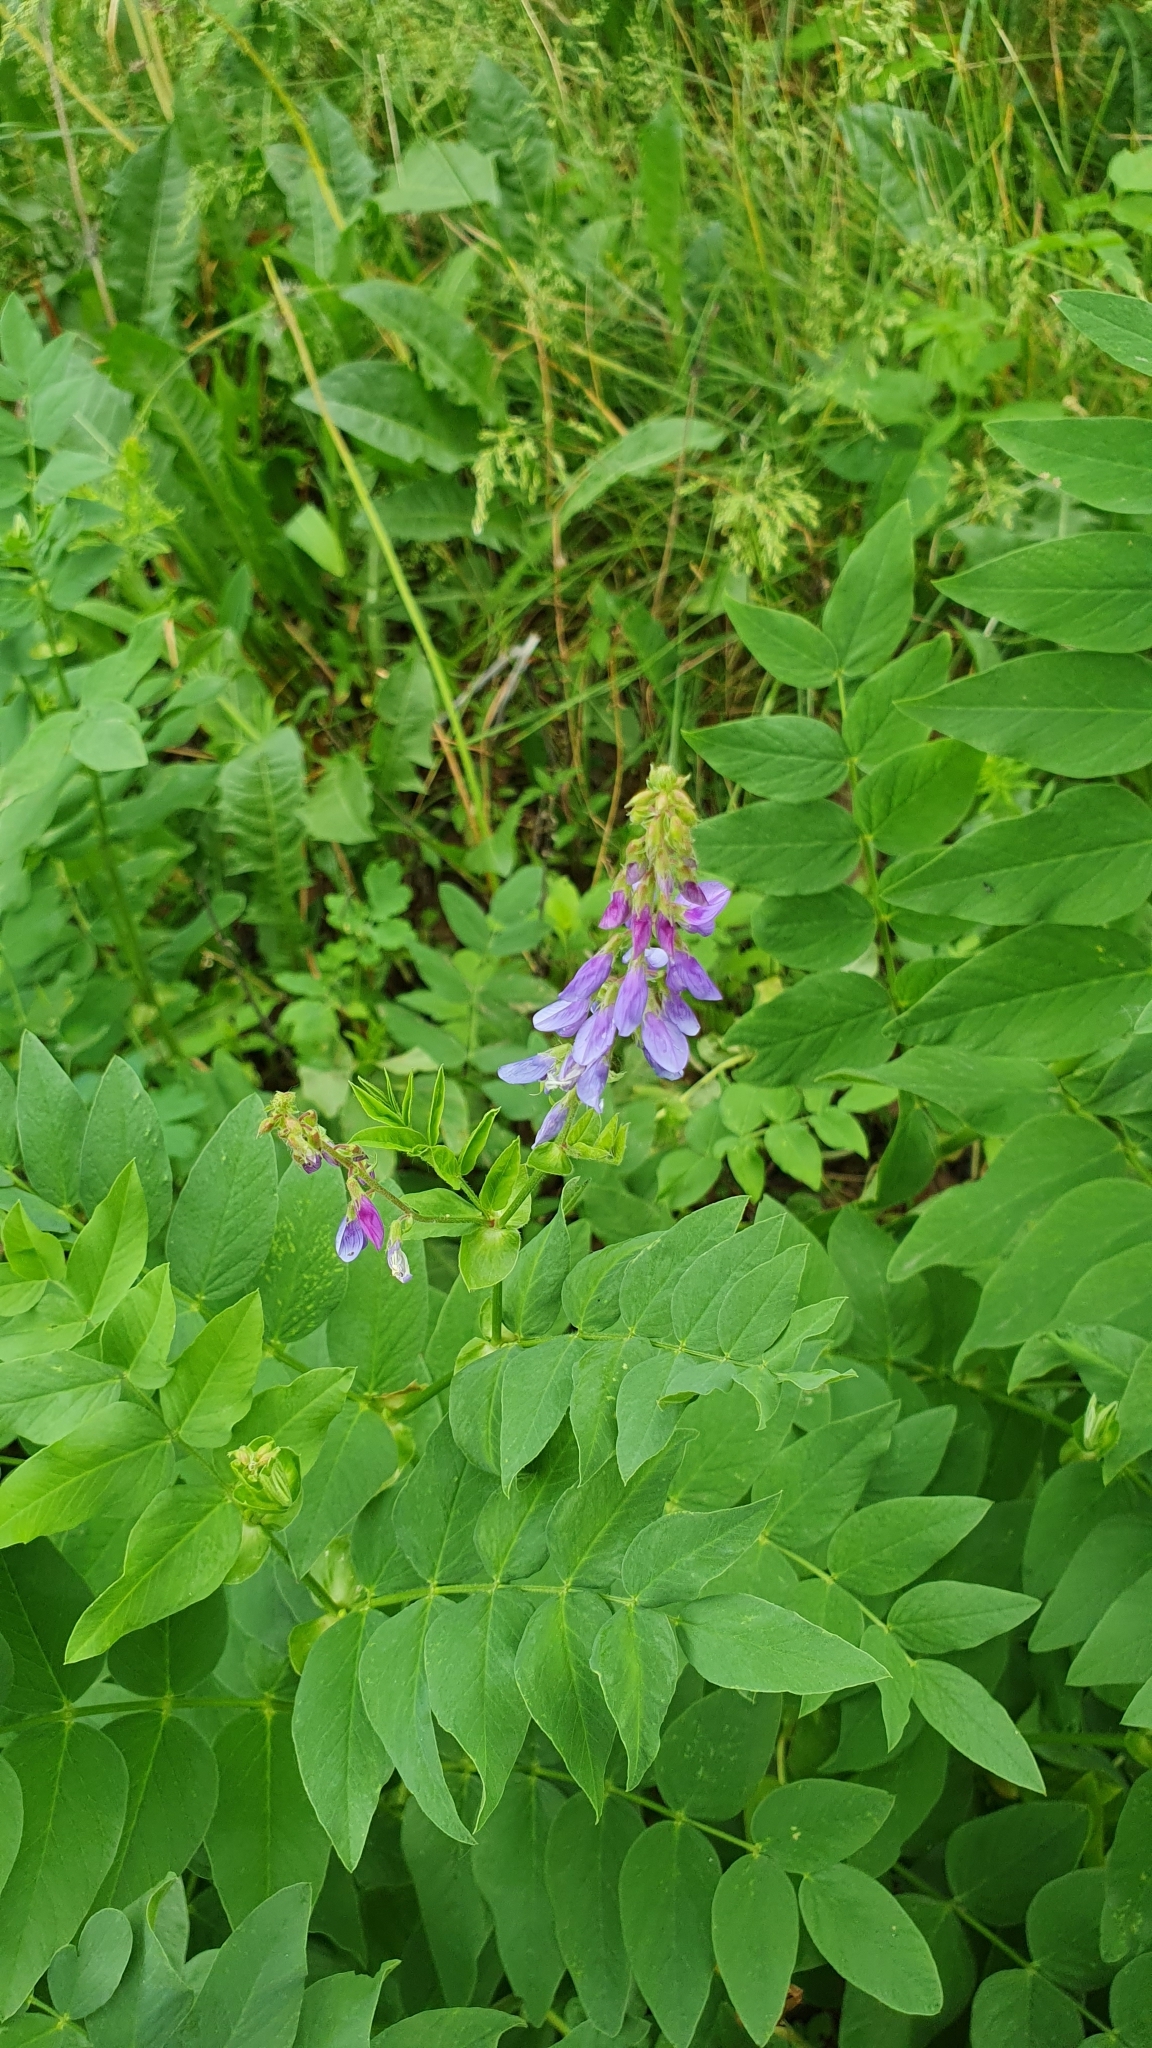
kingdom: Plantae
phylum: Tracheophyta
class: Magnoliopsida
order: Fabales
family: Fabaceae
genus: Galega
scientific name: Galega orientalis
